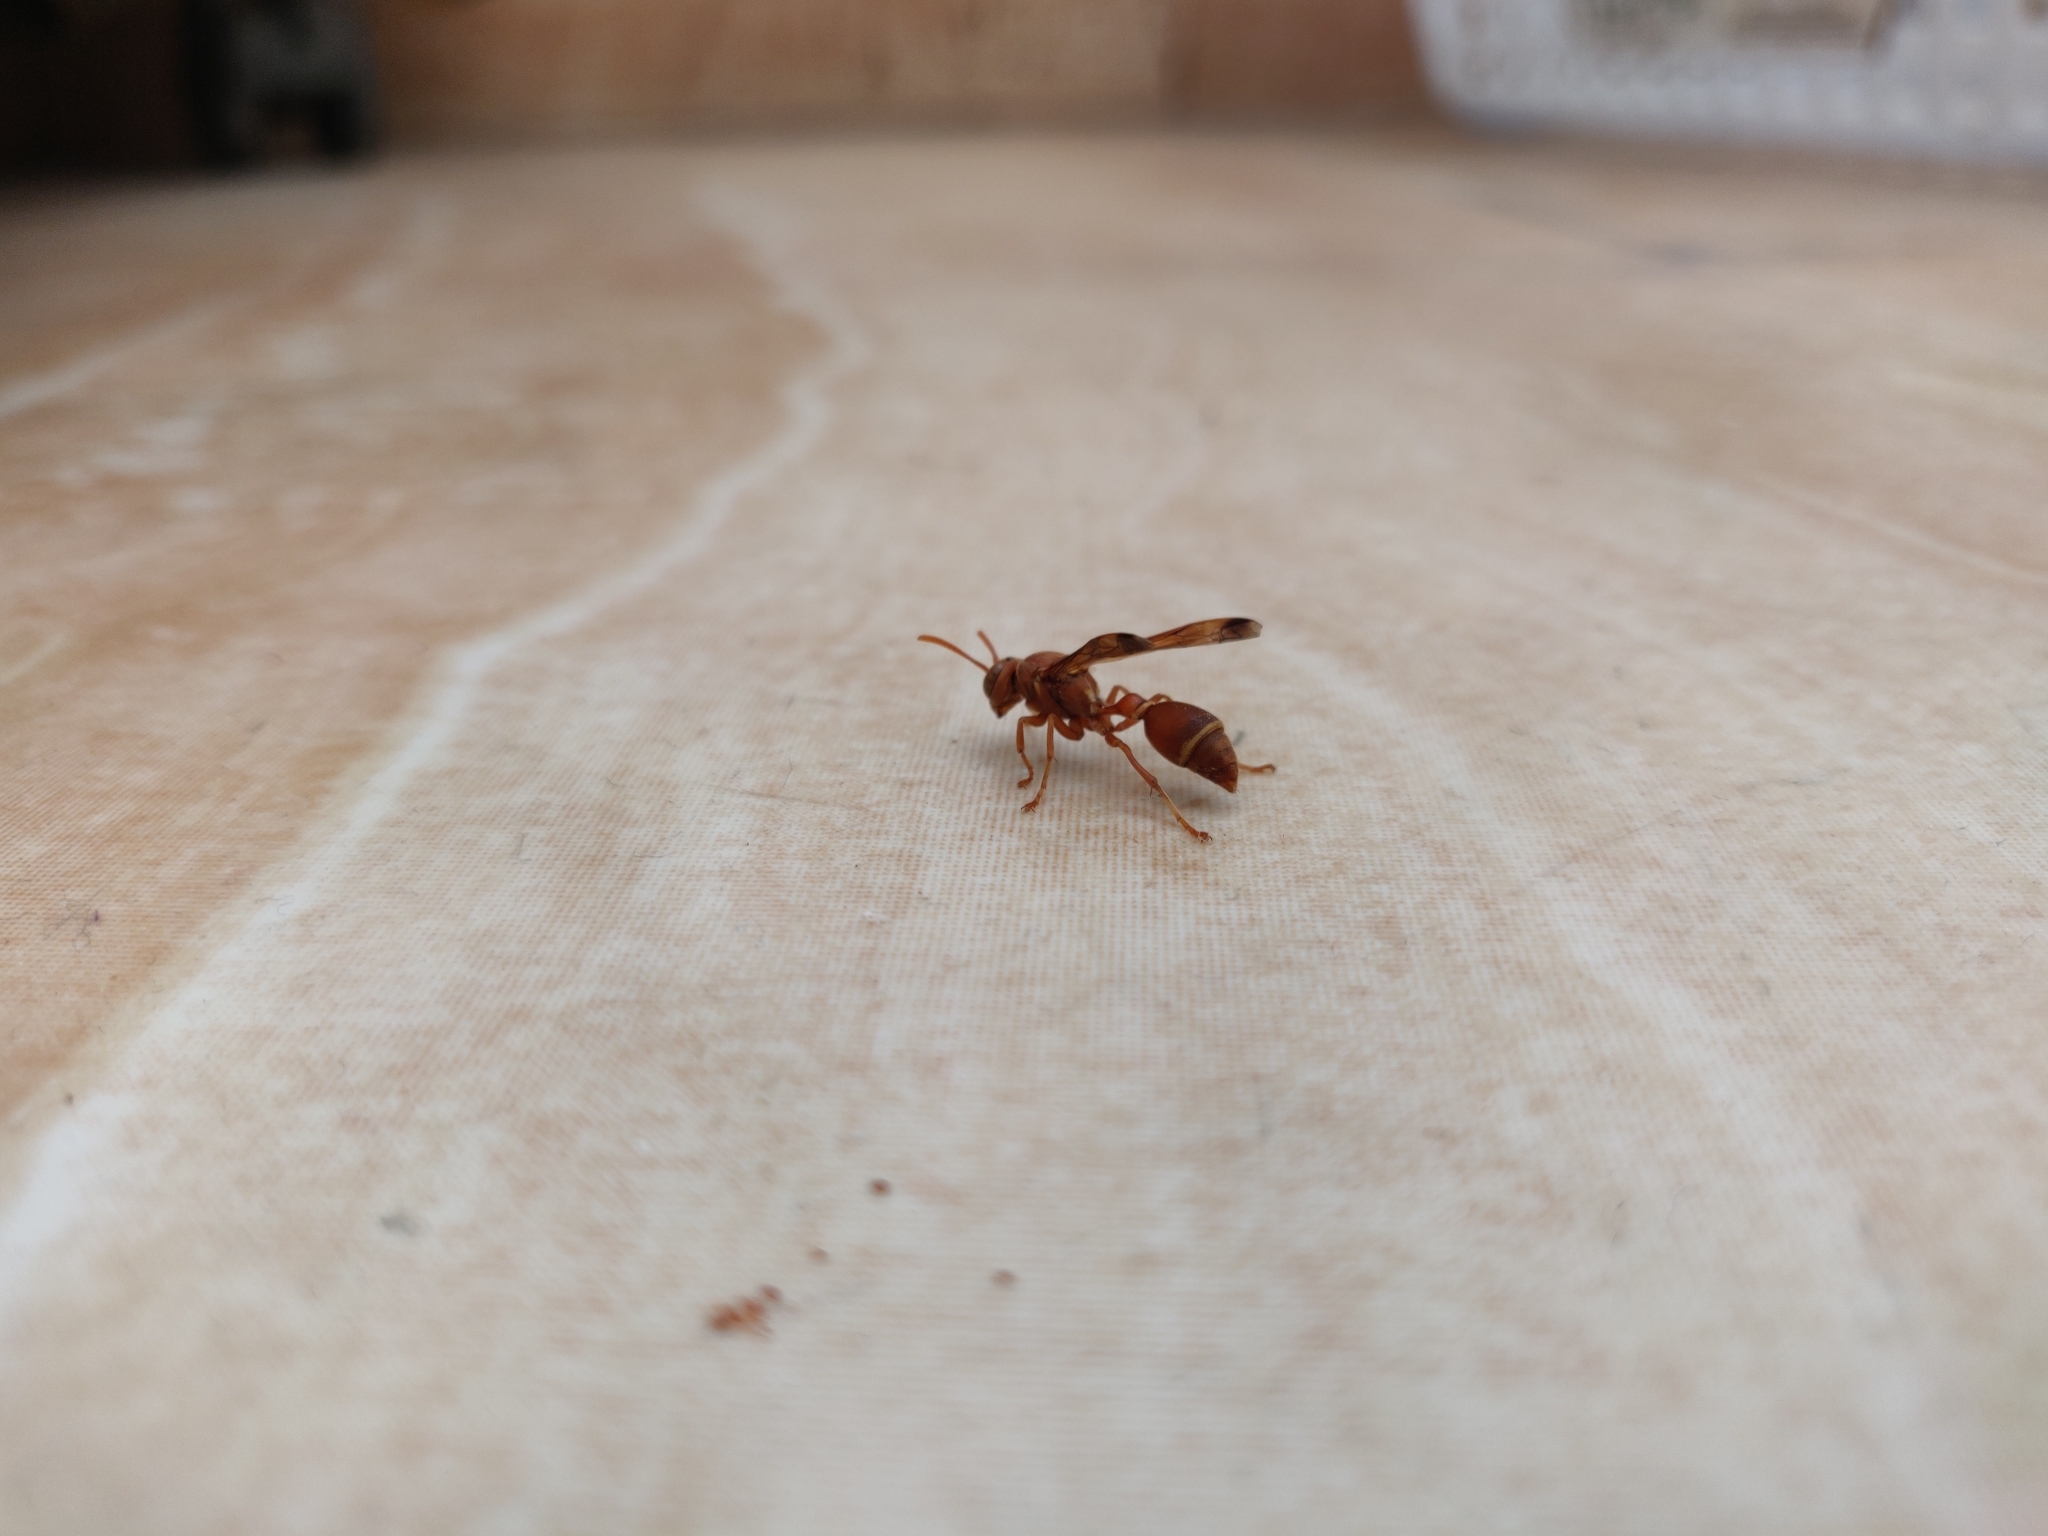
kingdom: Animalia
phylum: Arthropoda
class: Insecta
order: Hymenoptera
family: Vespidae
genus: Ropalidia
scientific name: Ropalidia marginata
